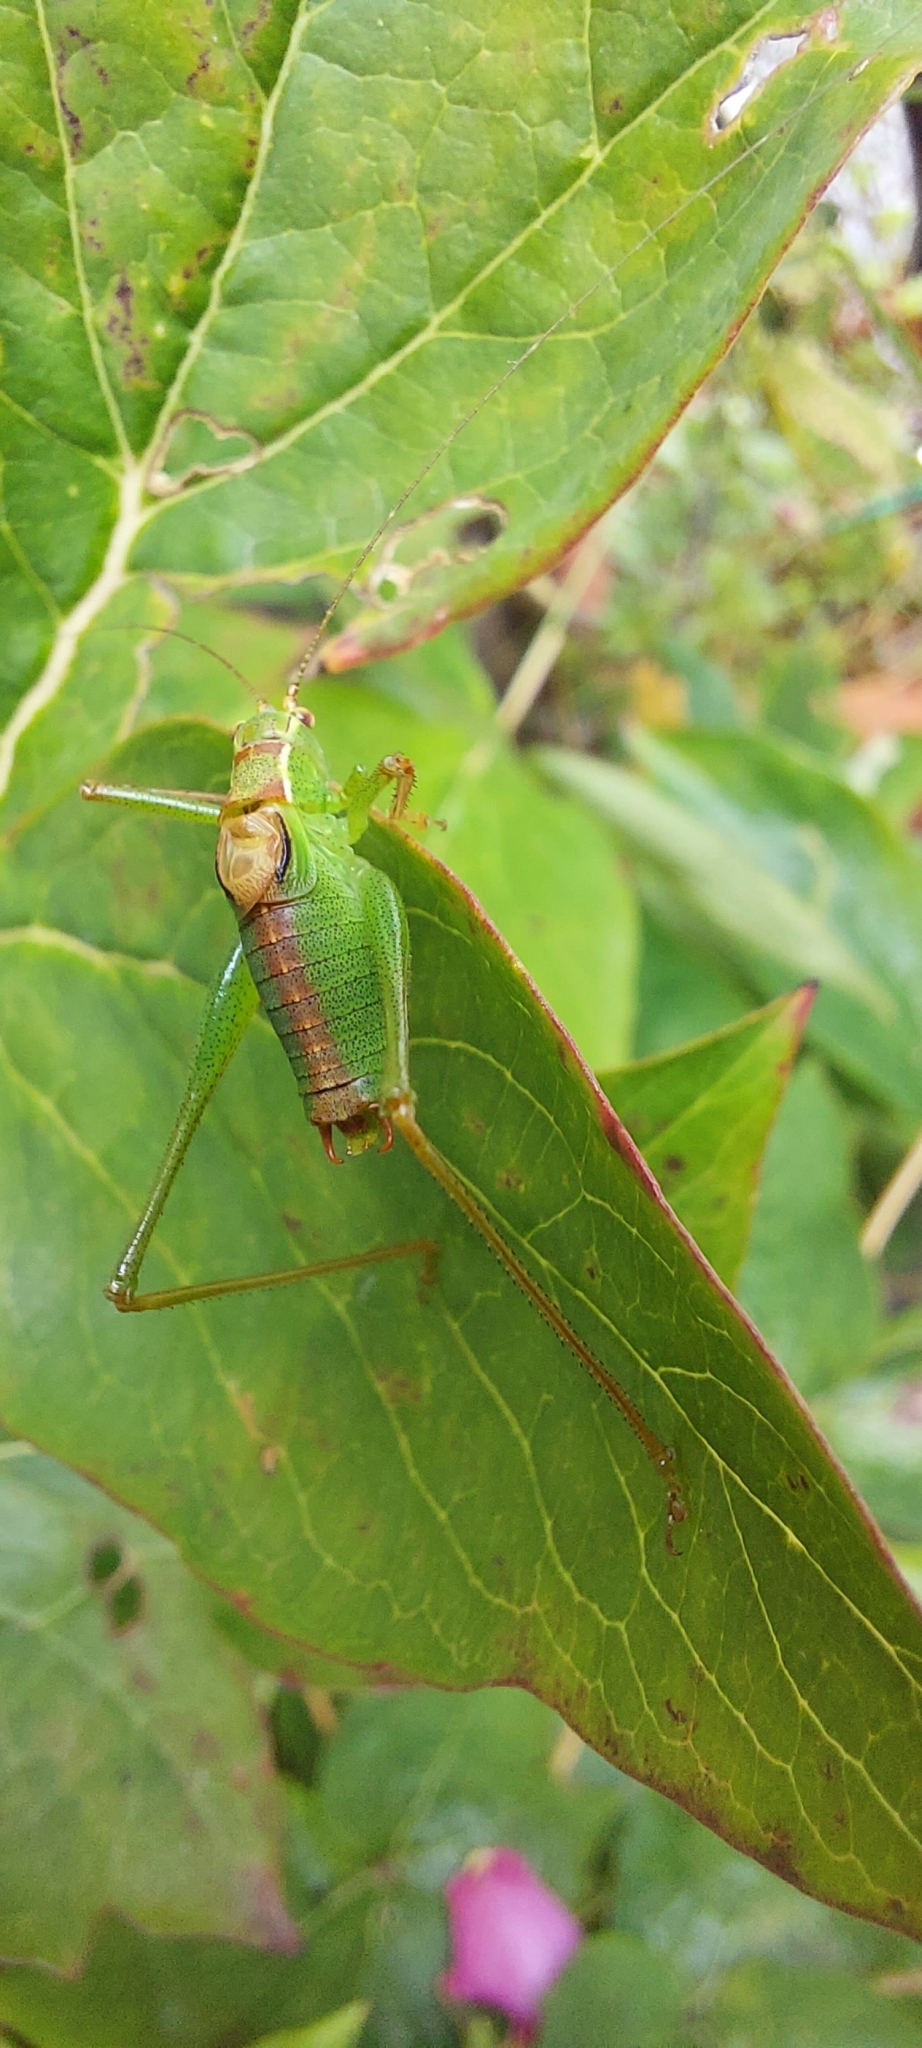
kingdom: Animalia
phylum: Arthropoda
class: Insecta
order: Orthoptera
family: Tettigoniidae
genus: Leptophyes
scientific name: Leptophyes punctatissima
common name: Speckled bush-cricket
